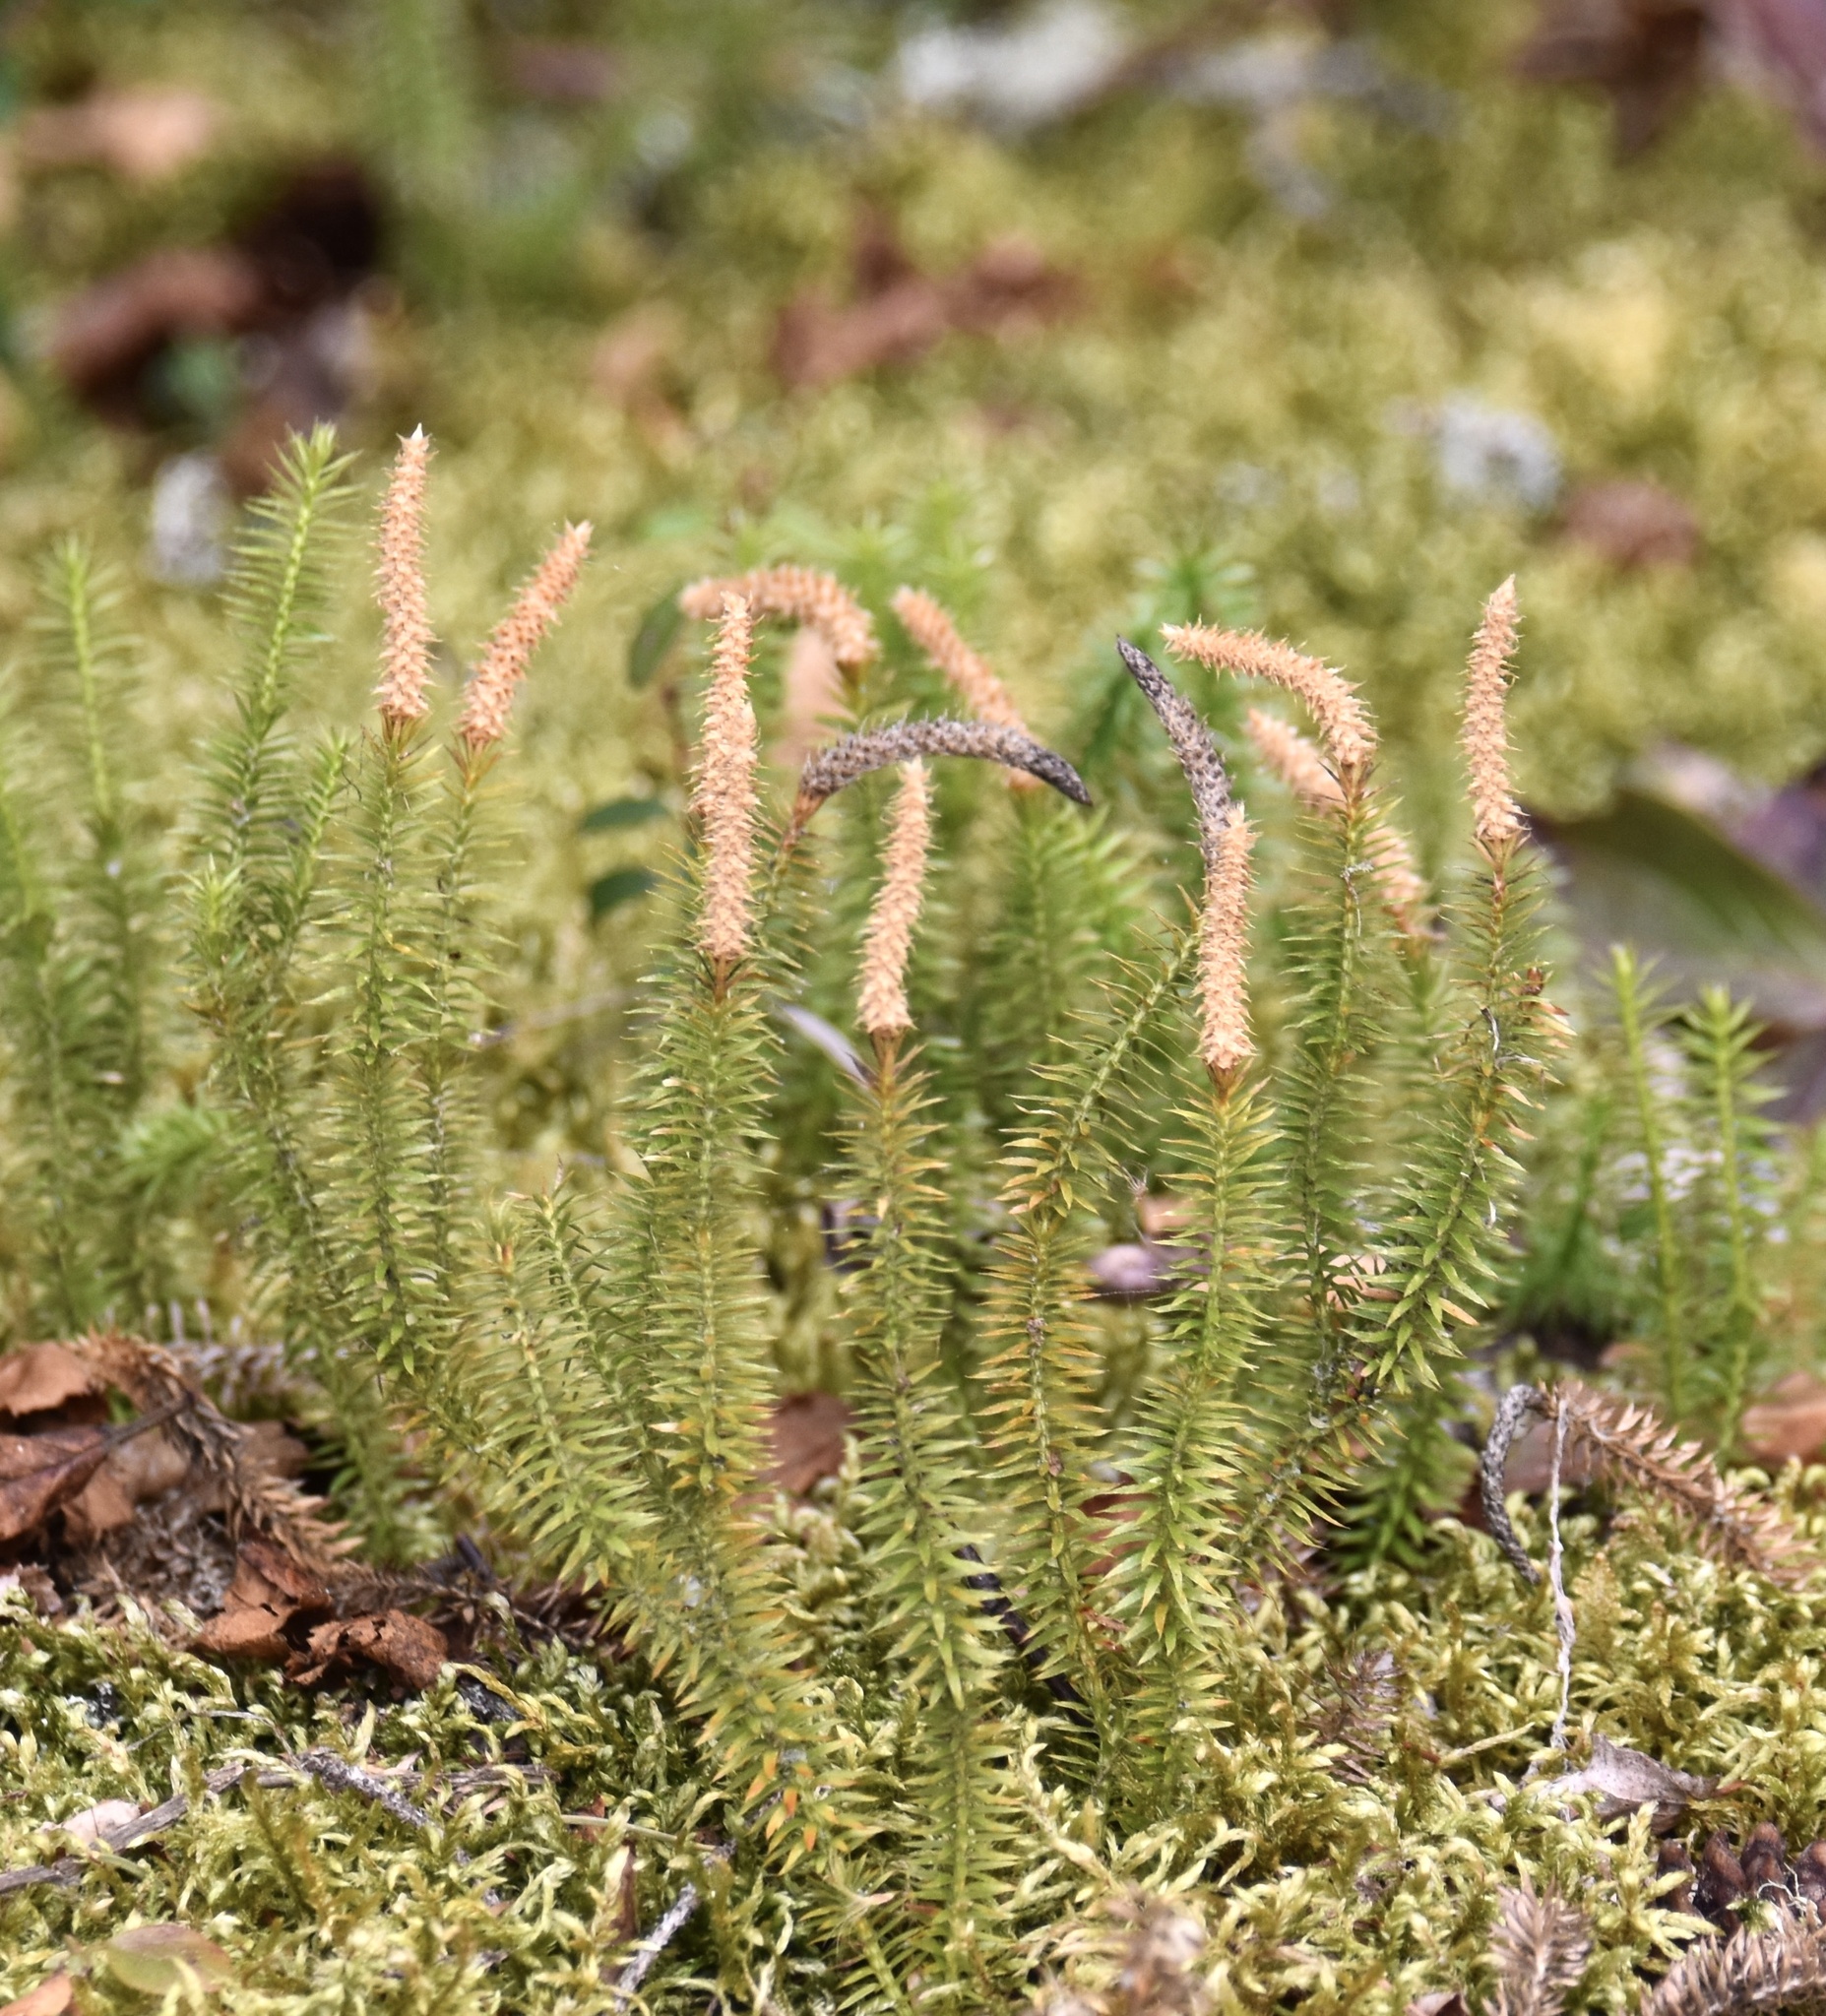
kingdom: Plantae
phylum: Tracheophyta
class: Lycopodiopsida
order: Lycopodiales
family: Lycopodiaceae
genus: Spinulum
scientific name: Spinulum annotinum
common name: Interrupted club-moss
